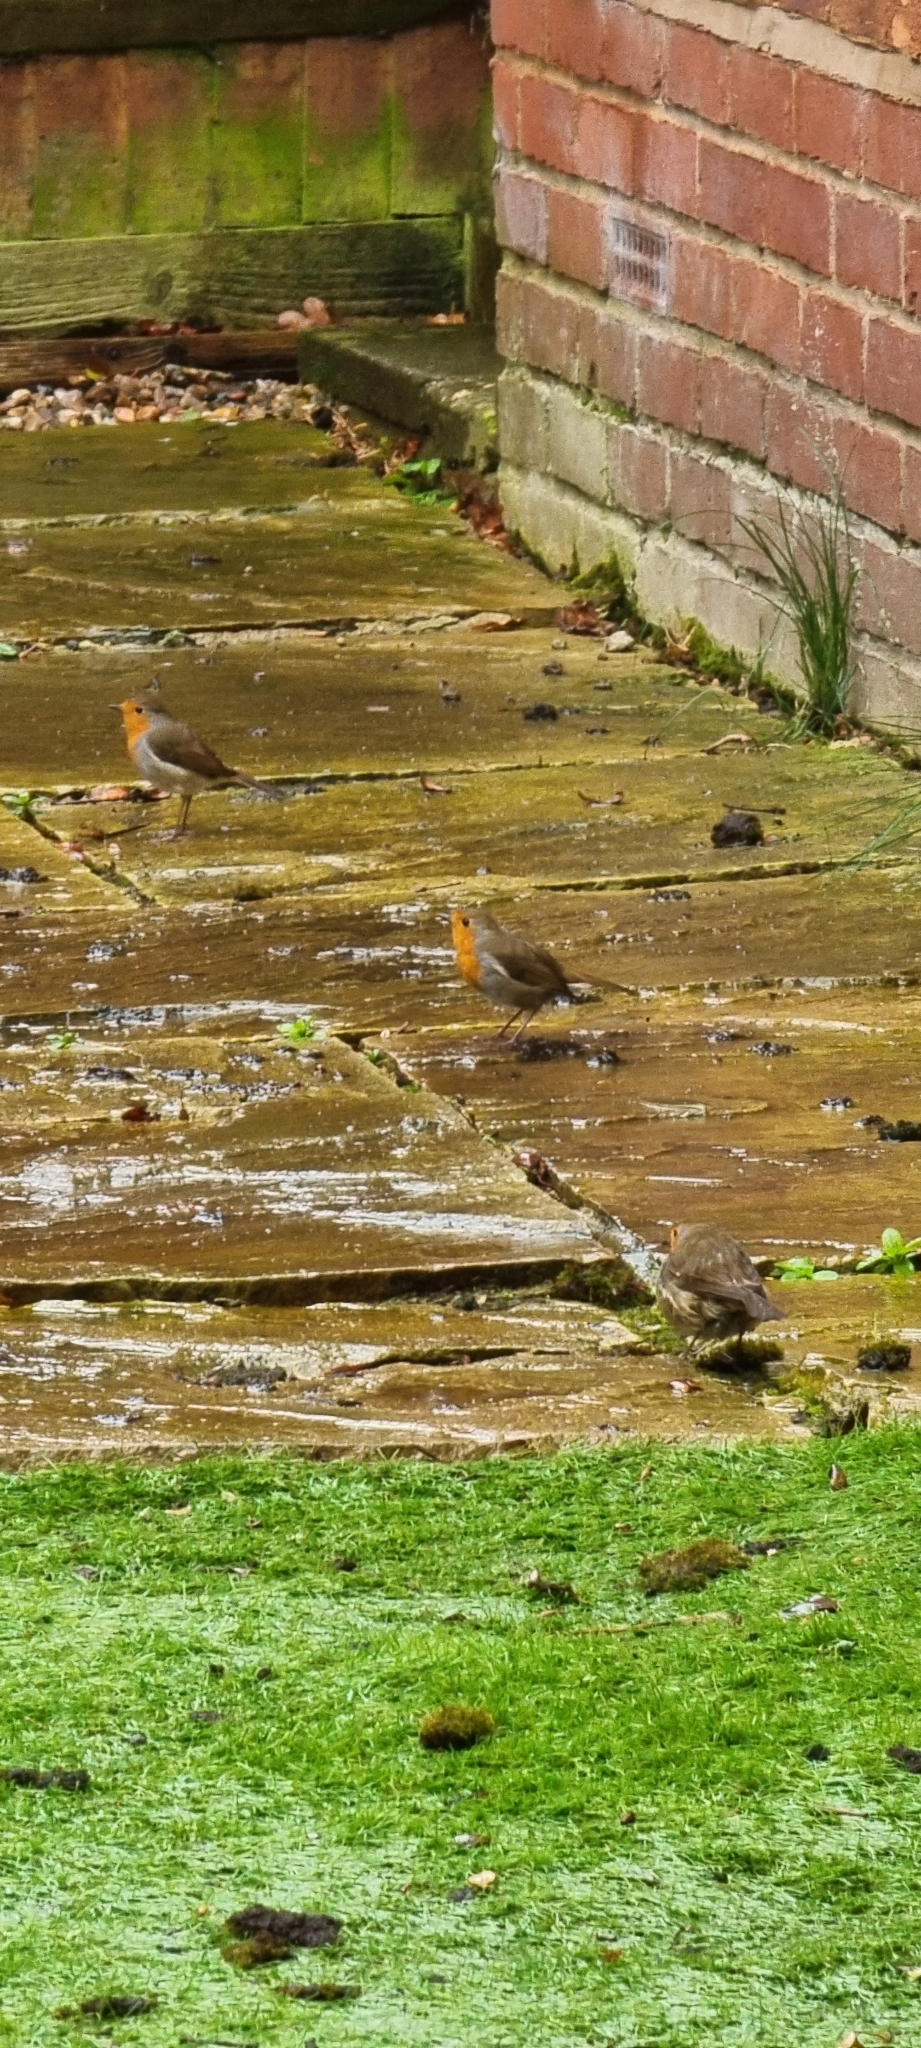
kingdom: Animalia
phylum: Chordata
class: Aves
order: Passeriformes
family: Muscicapidae
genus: Erithacus
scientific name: Erithacus rubecula
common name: European robin
